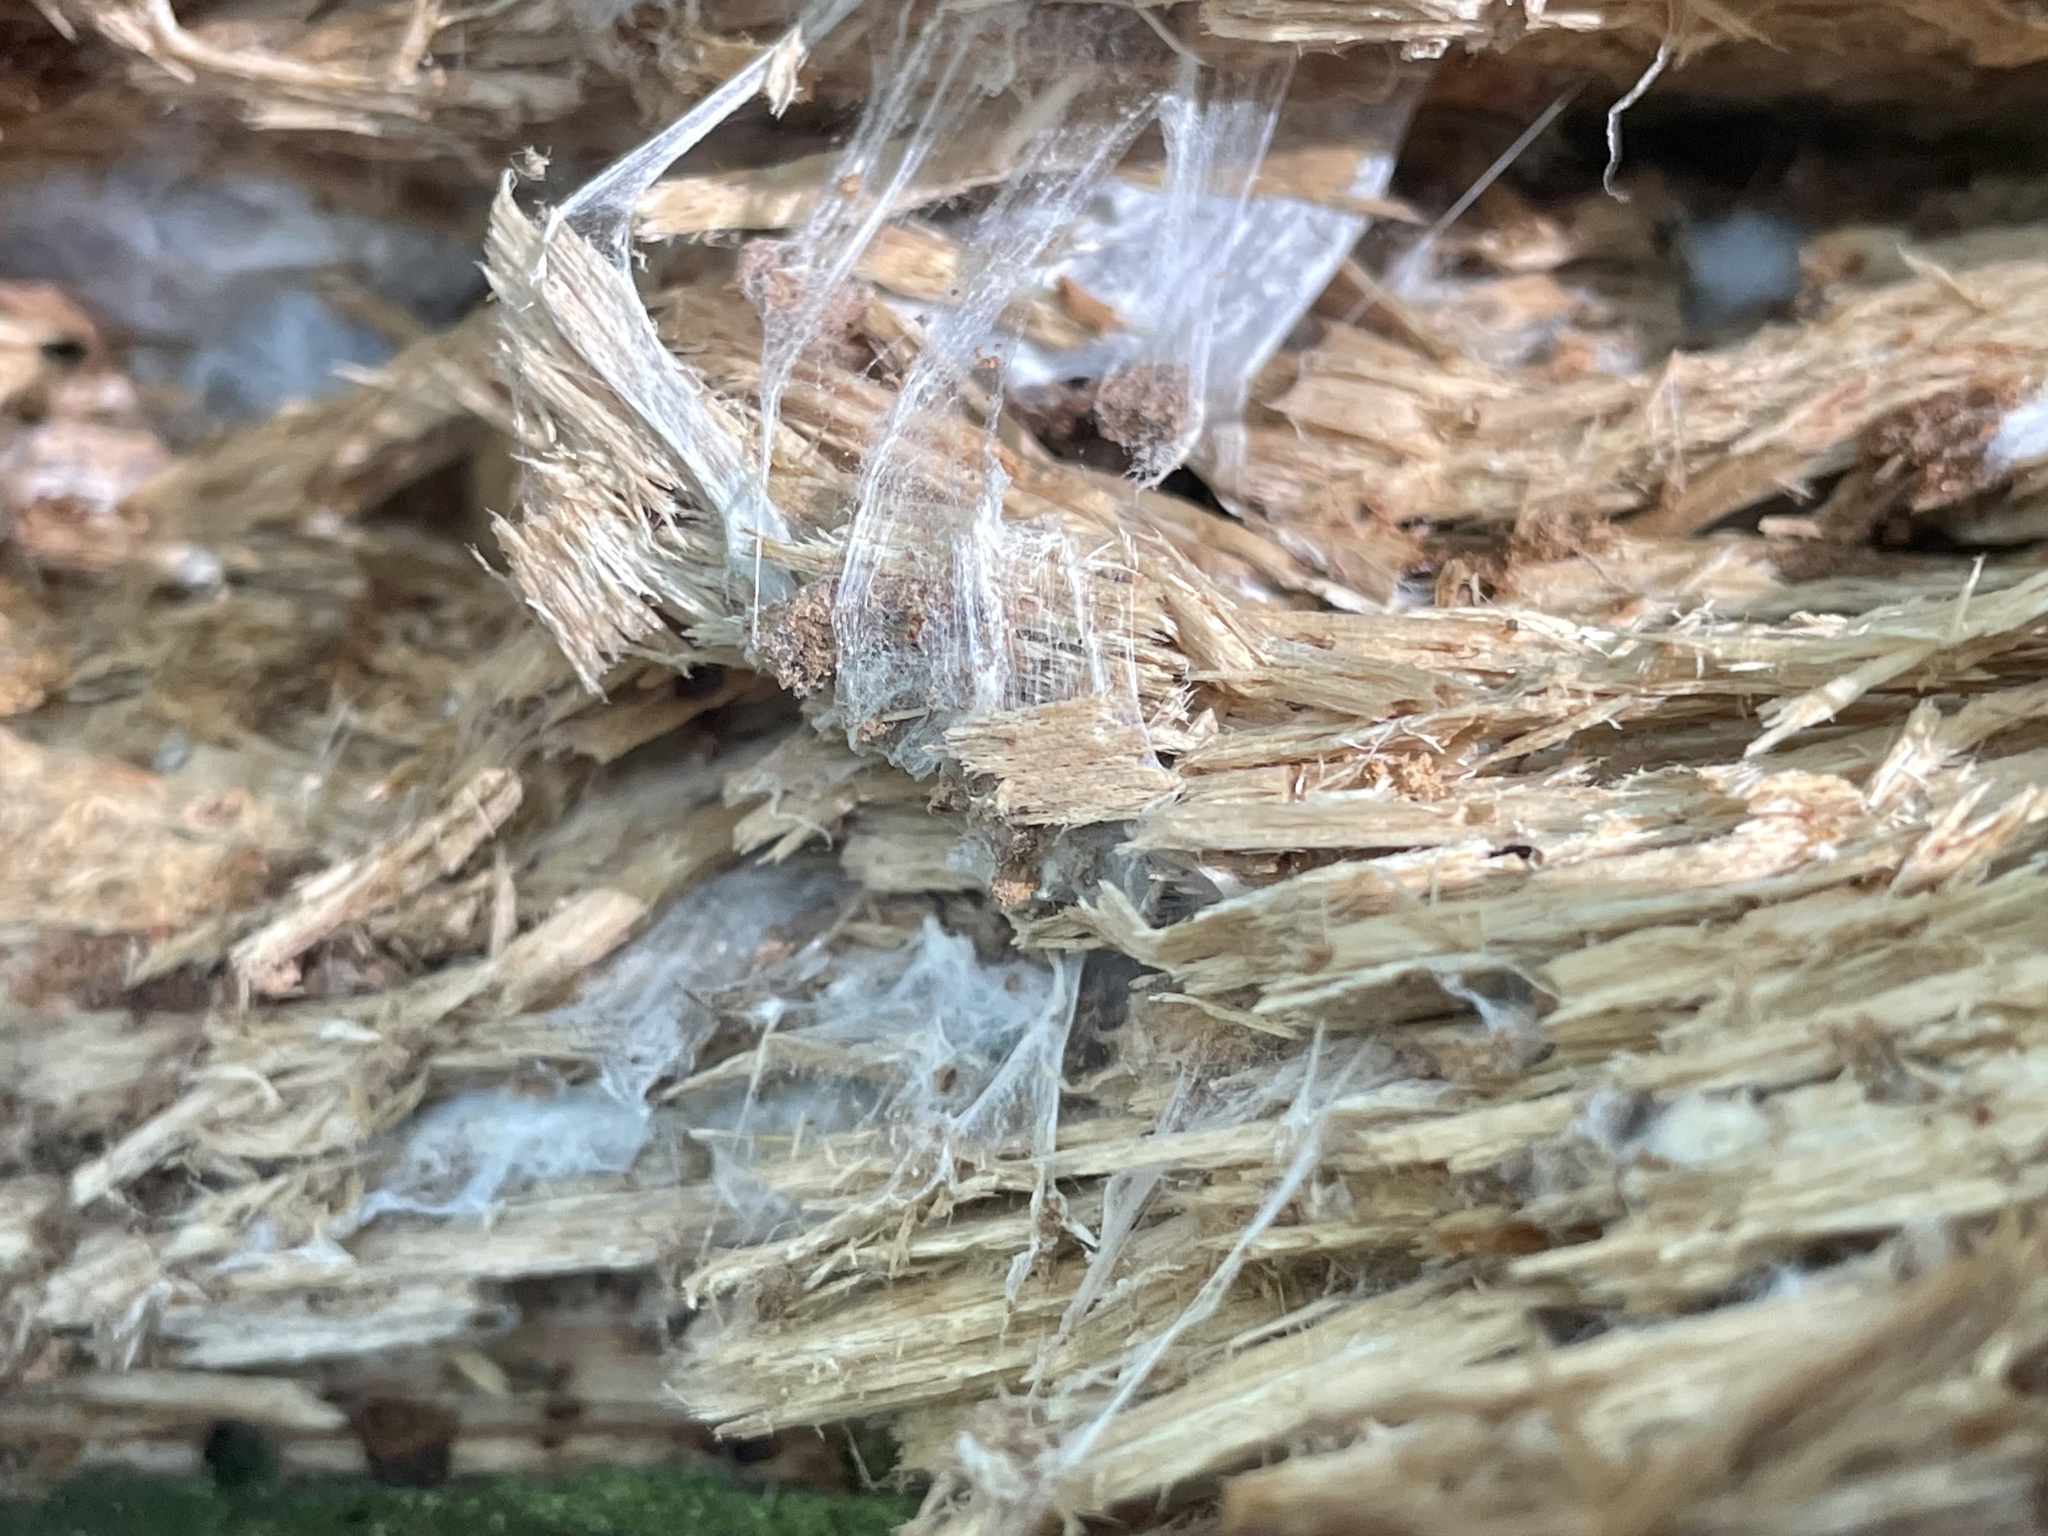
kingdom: Fungi
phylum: Basidiomycota
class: Agaricomycetes
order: Russulales
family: Bondarzewiaceae
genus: Wrightoporia
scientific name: Wrightoporia austrosinensis
